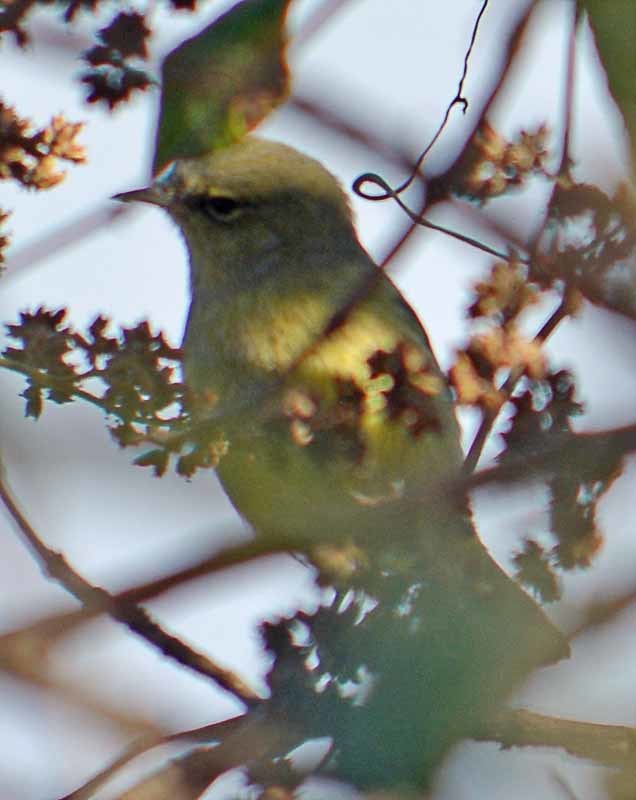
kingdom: Animalia
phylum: Chordata
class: Aves
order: Passeriformes
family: Parulidae
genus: Leiothlypis
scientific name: Leiothlypis celata
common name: Orange-crowned warbler
